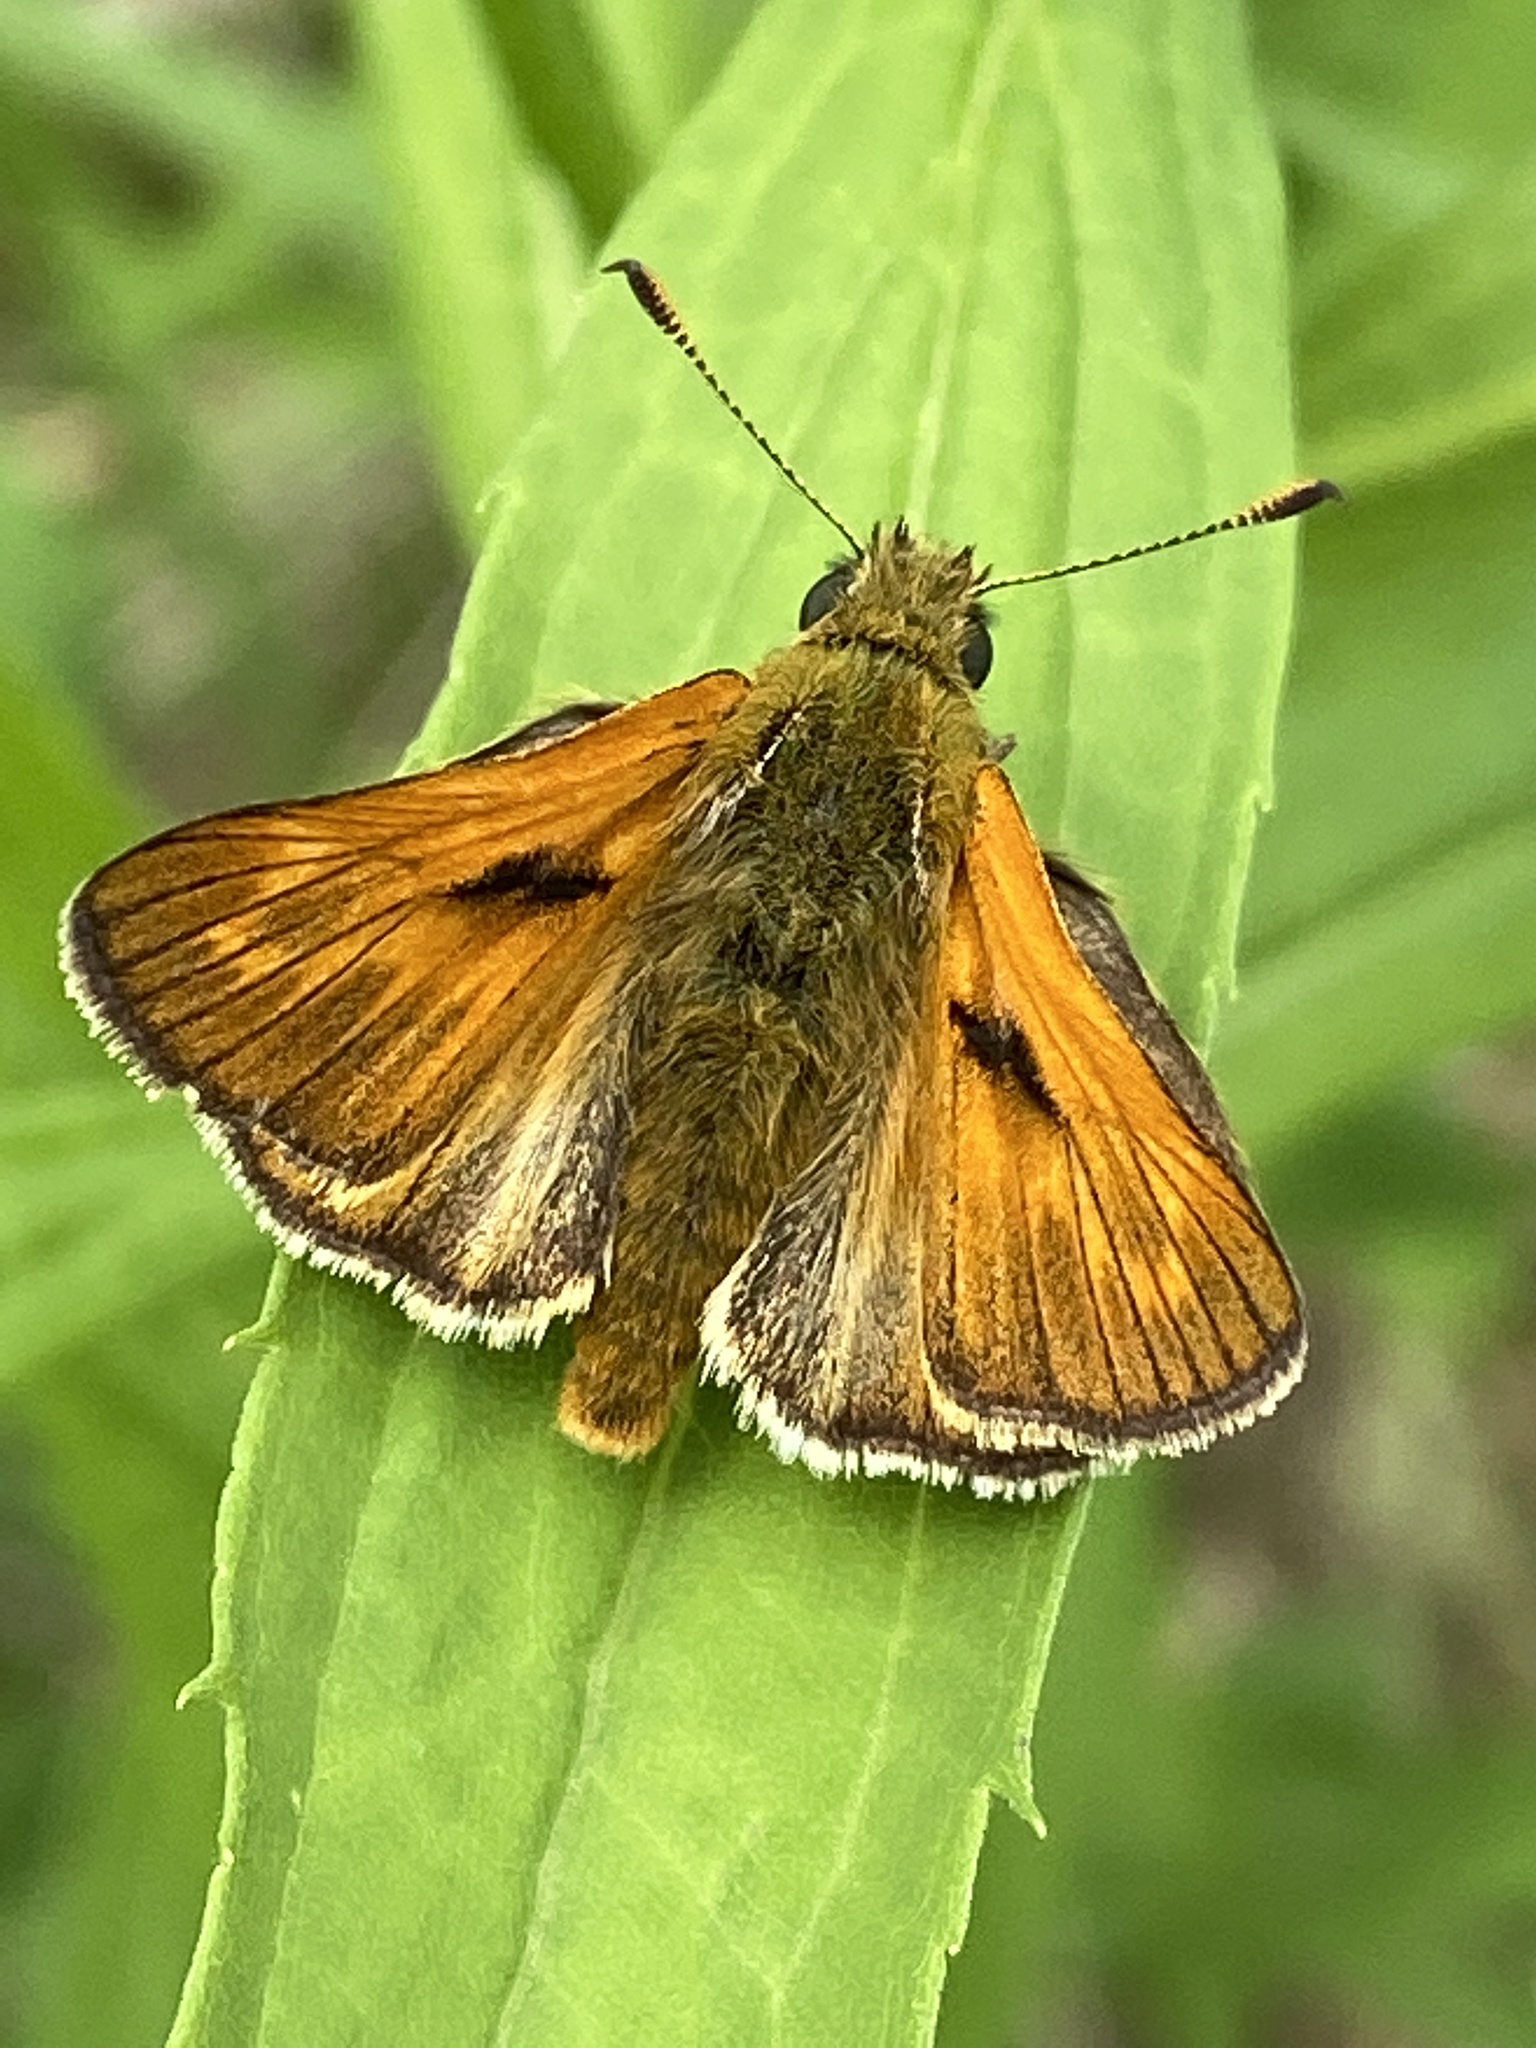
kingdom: Animalia
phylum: Arthropoda
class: Insecta
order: Lepidoptera
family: Hesperiidae
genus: Ochlodes
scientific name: Ochlodes venata
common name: Large skipper
